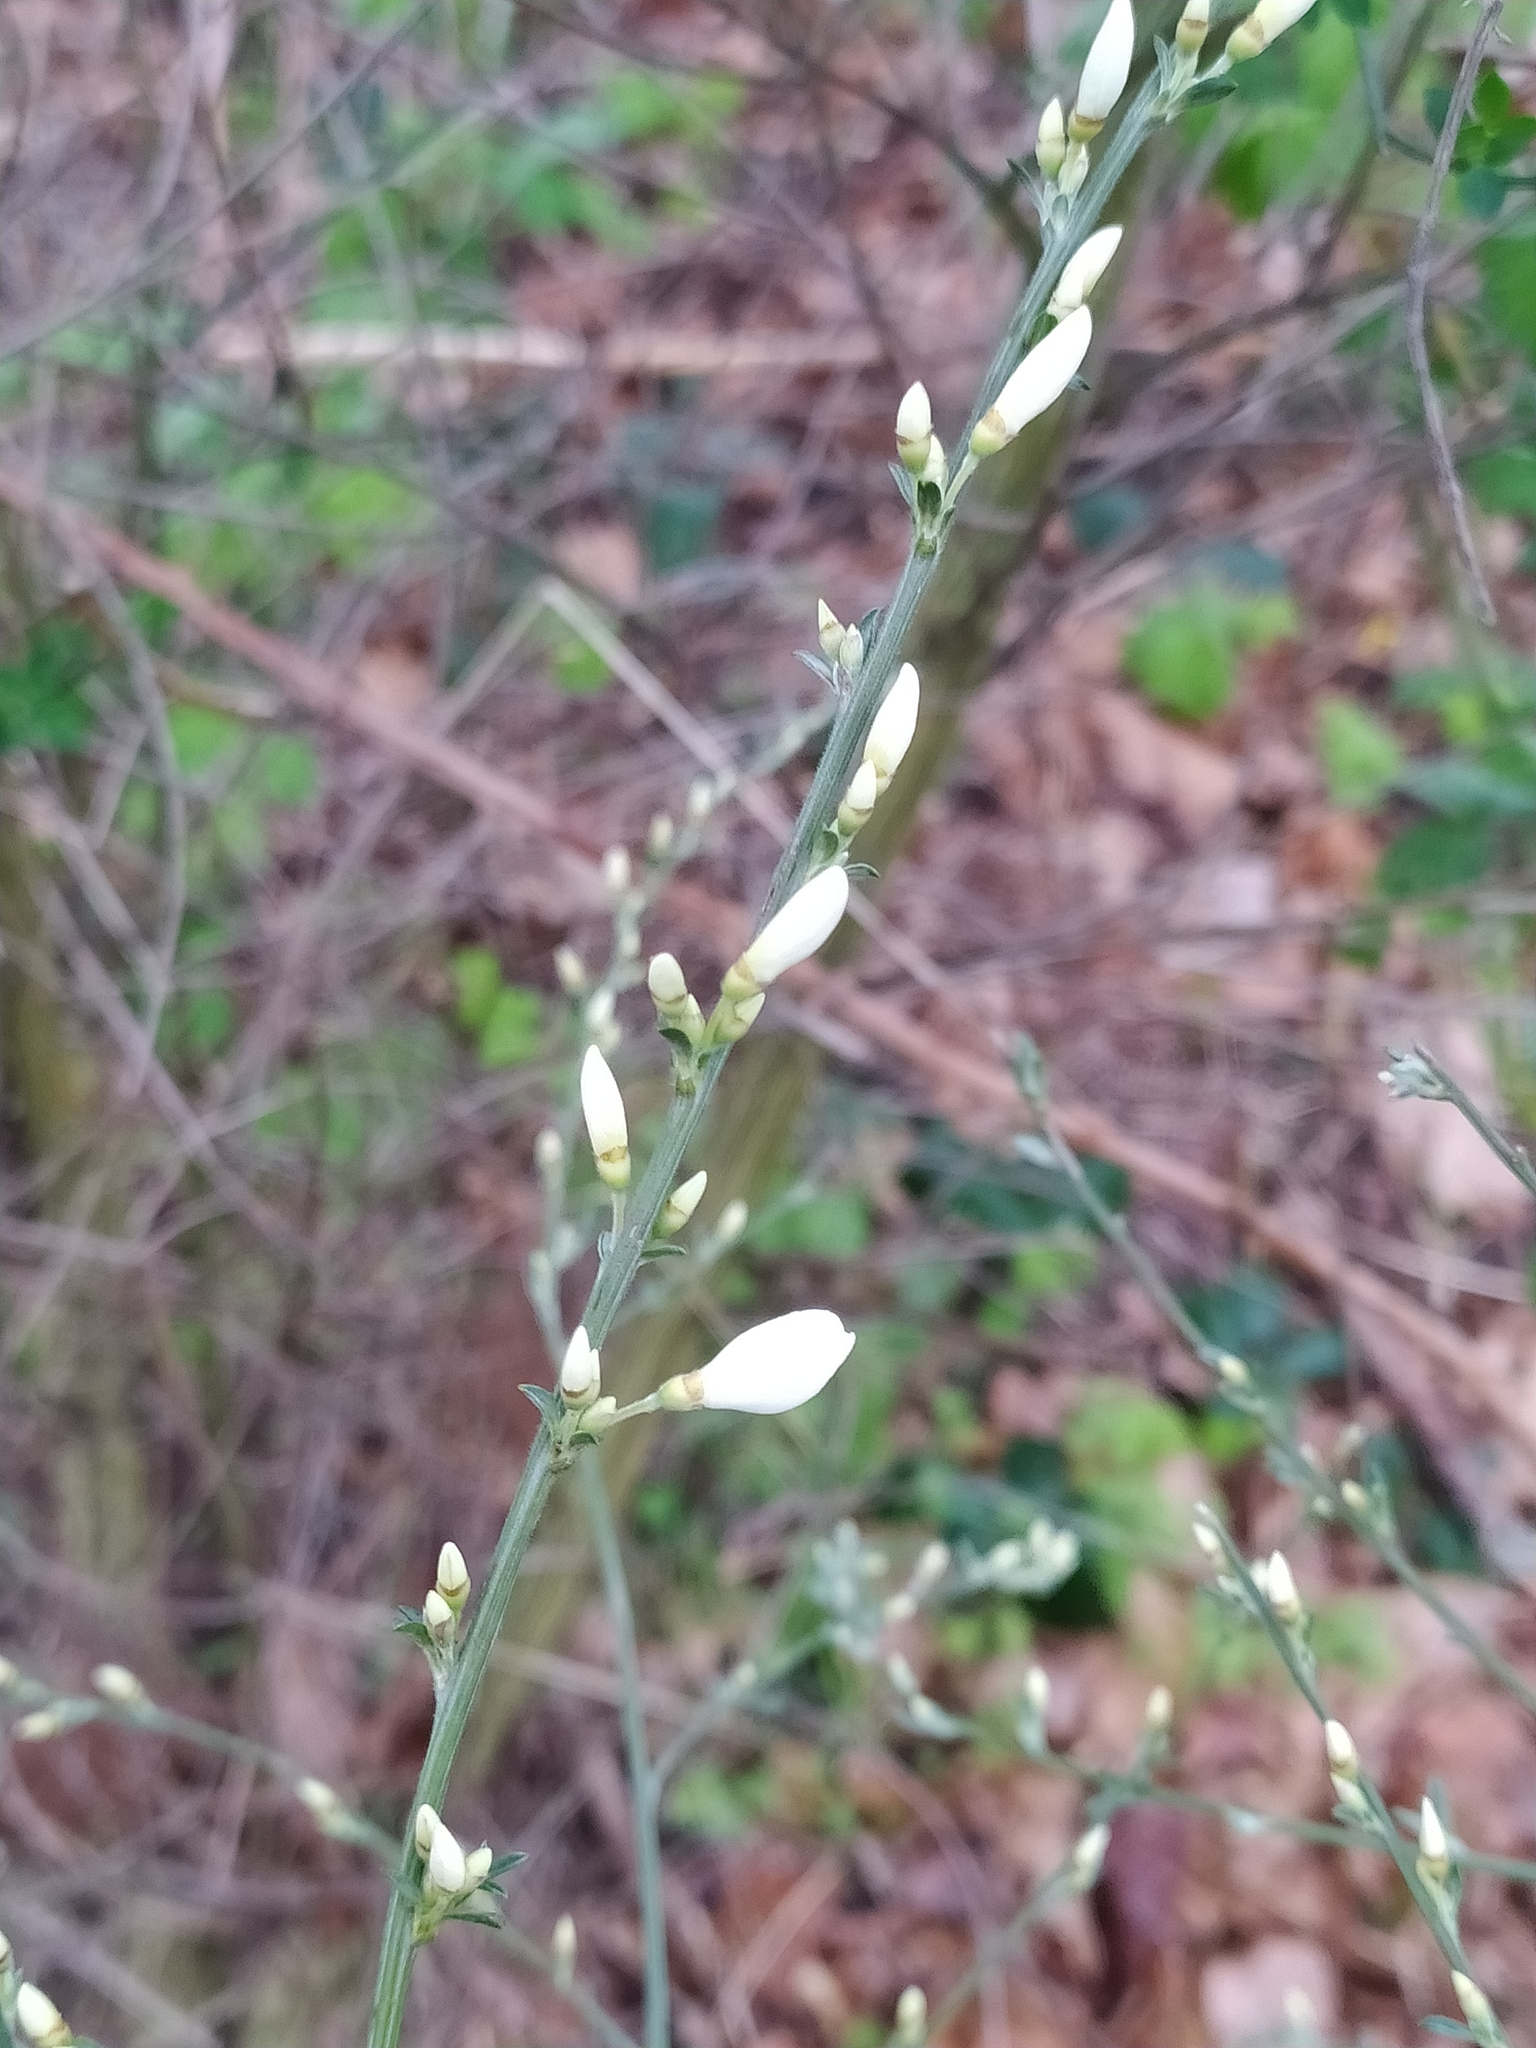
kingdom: Plantae
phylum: Tracheophyta
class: Magnoliopsida
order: Fabales
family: Fabaceae
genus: Cytisus
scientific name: Cytisus multiflorus
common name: White broom
